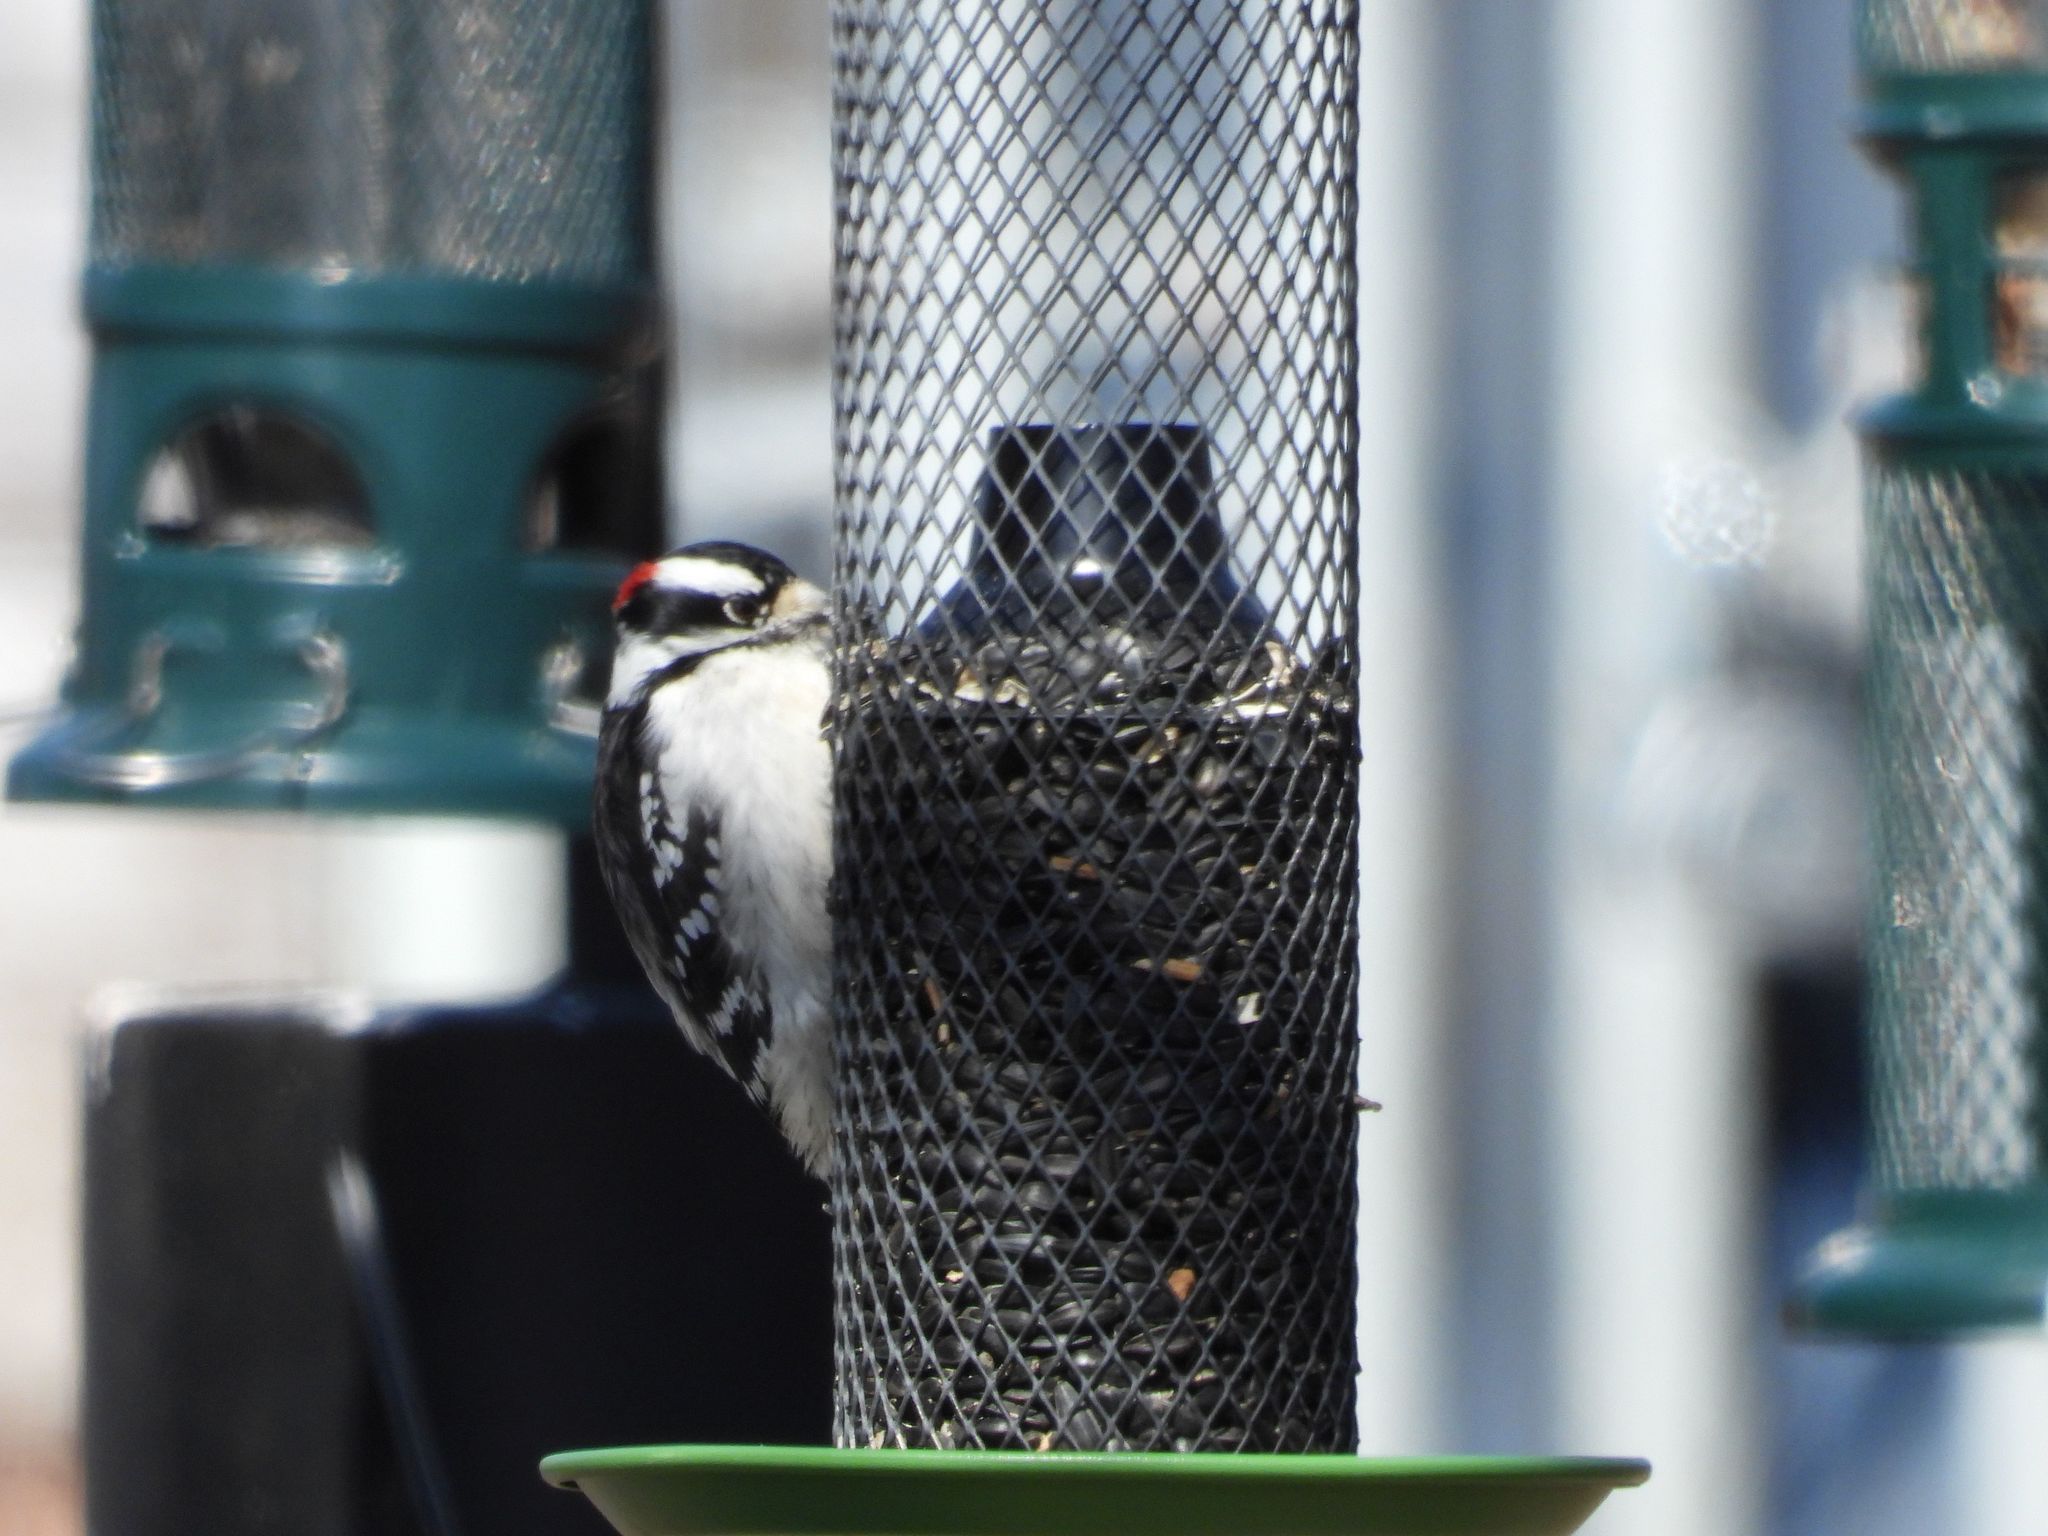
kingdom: Animalia
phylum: Chordata
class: Aves
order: Piciformes
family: Picidae
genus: Dryobates
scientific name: Dryobates pubescens
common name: Downy woodpecker
